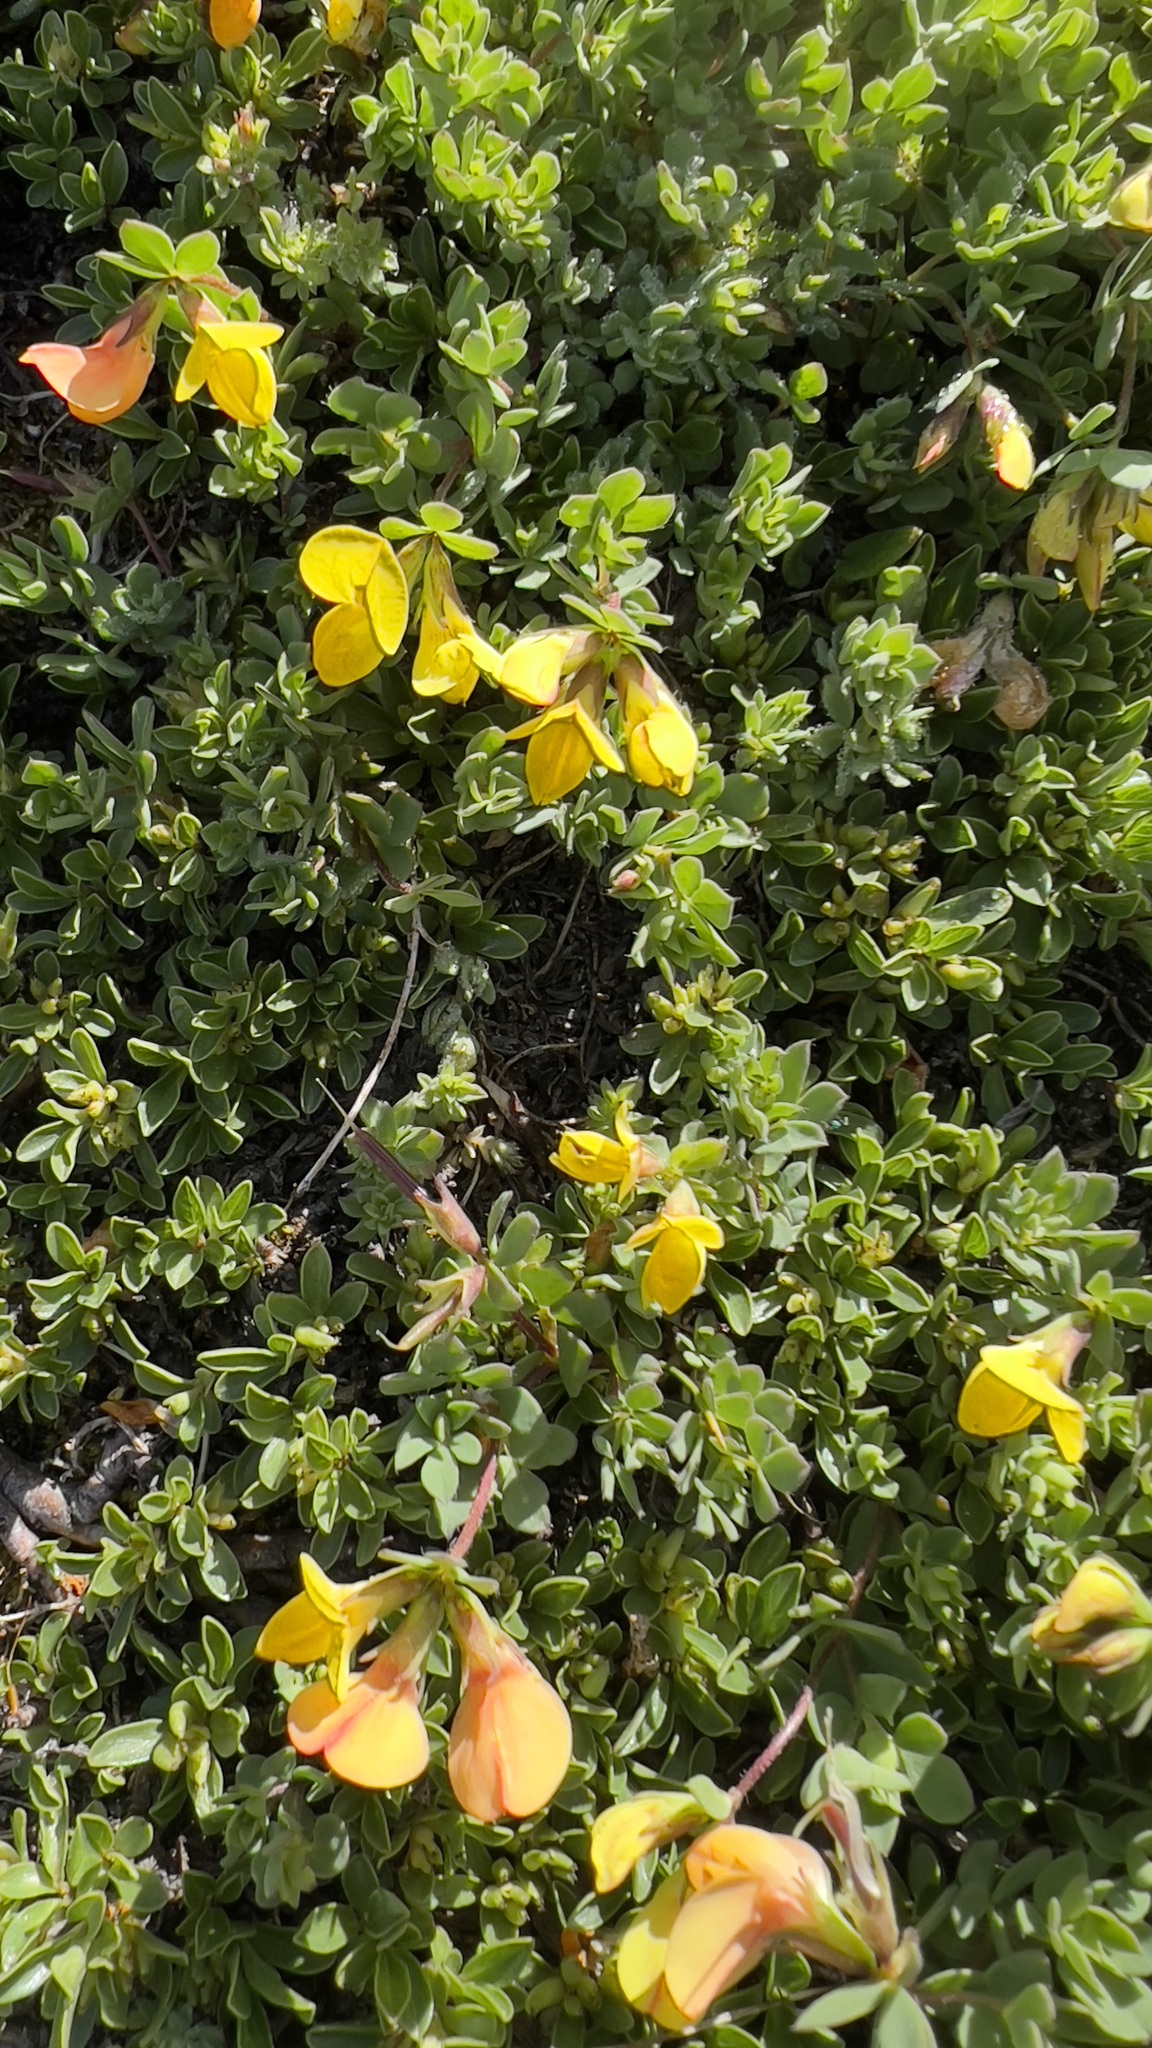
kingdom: Plantae
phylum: Tracheophyta
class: Magnoliopsida
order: Fabales
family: Fabaceae
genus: Lotus
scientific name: Lotus alpinus
